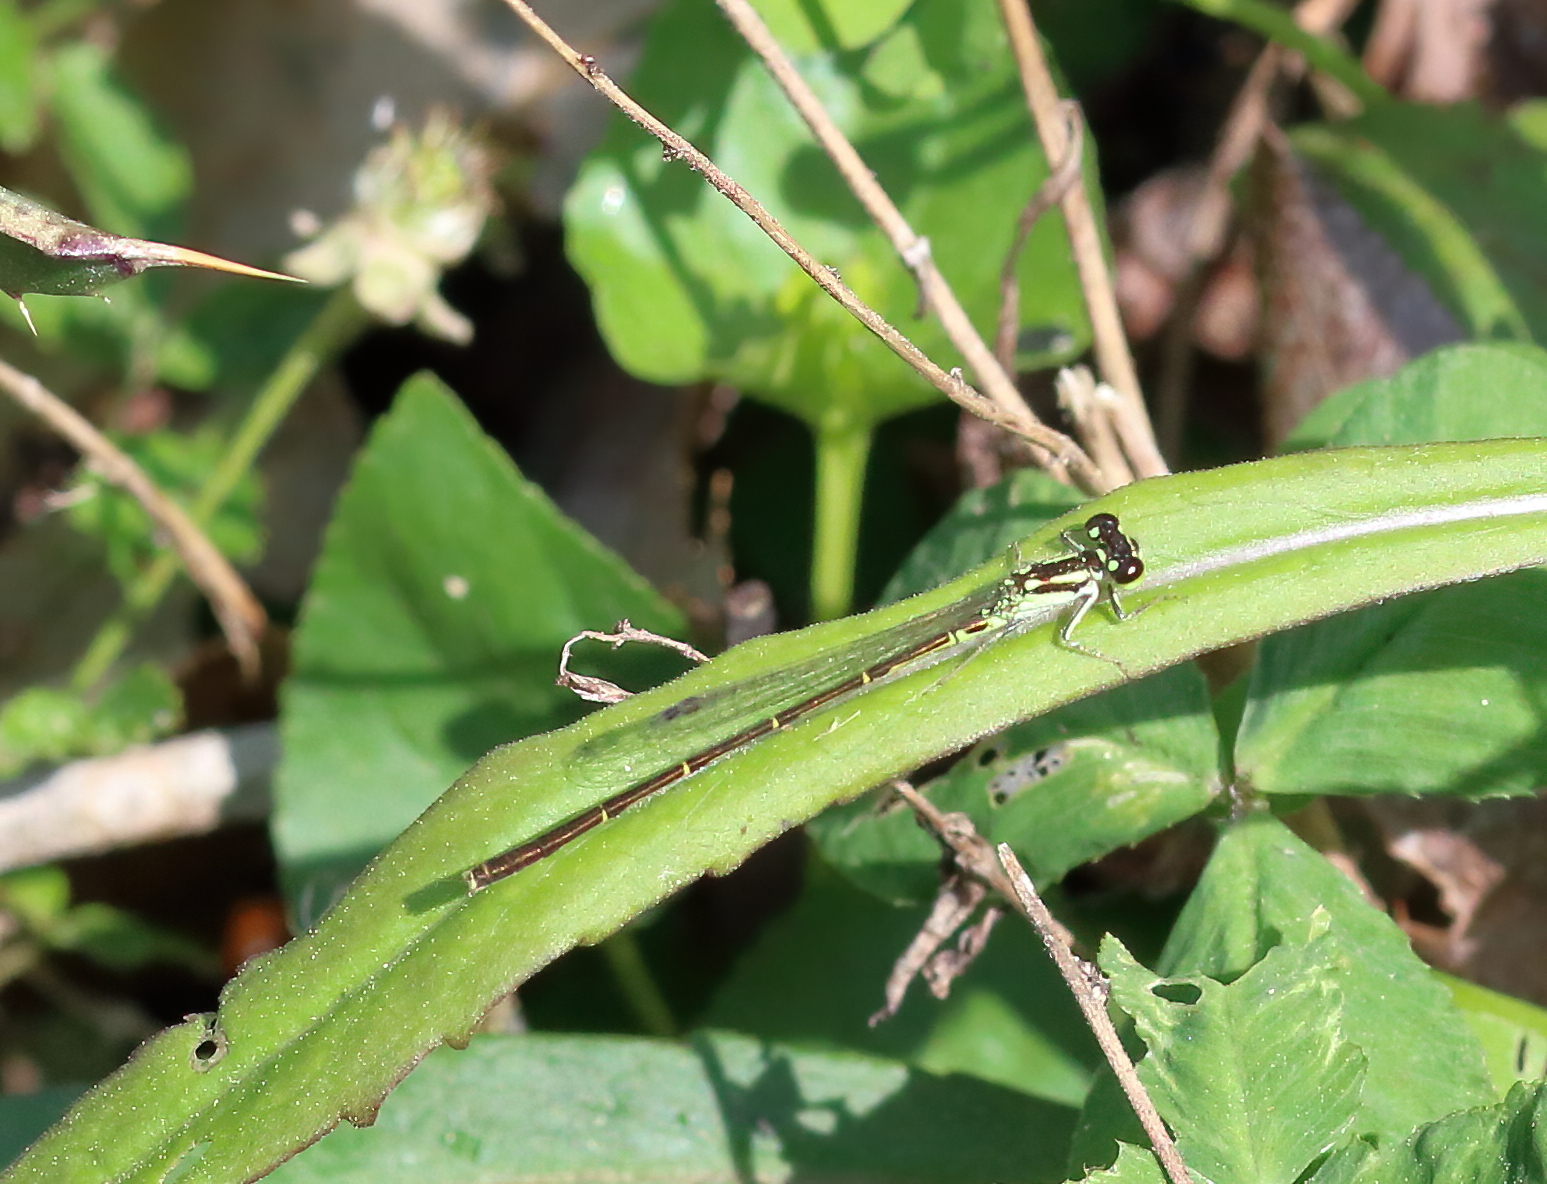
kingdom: Animalia
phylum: Arthropoda
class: Insecta
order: Odonata
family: Coenagrionidae
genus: Ischnura
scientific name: Ischnura posita
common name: Fragile forktail
